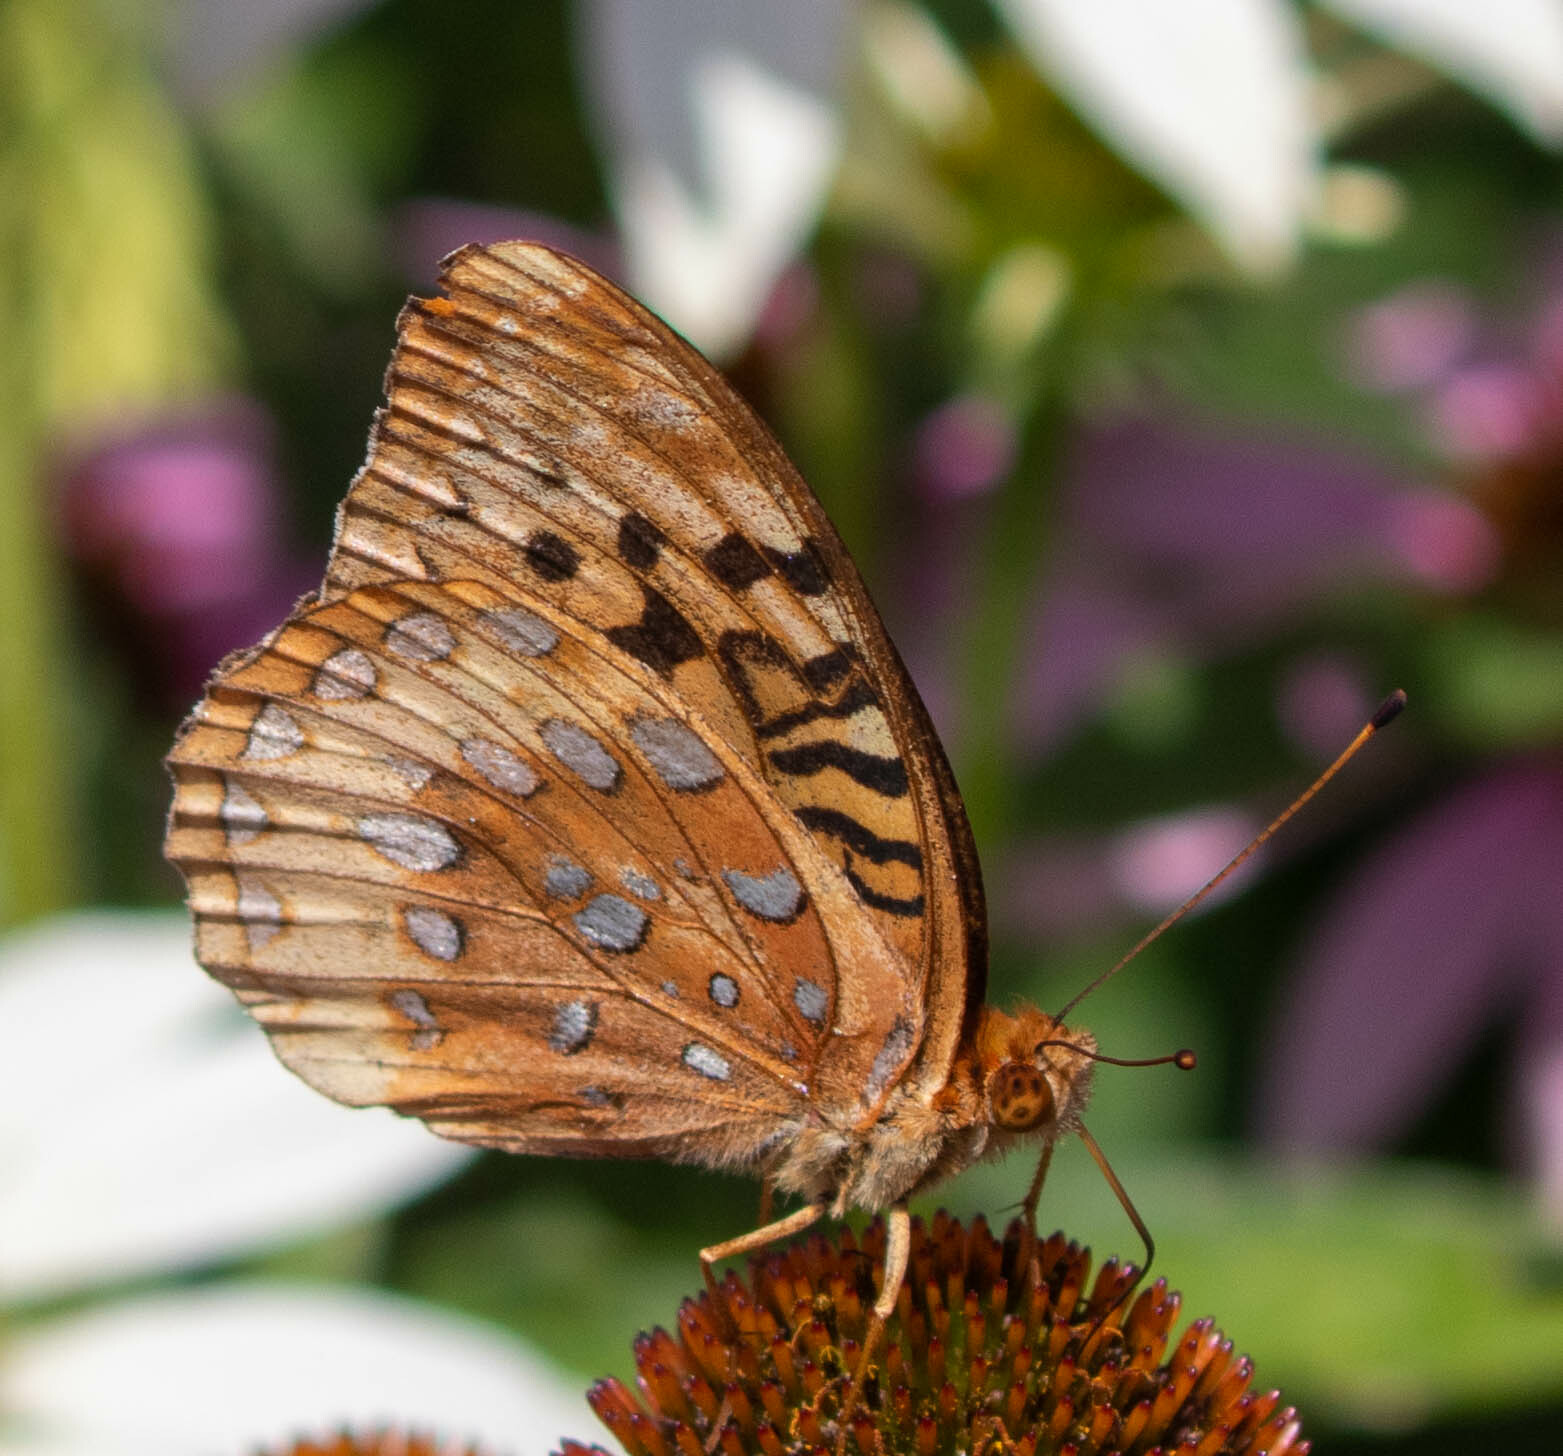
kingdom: Animalia
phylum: Arthropoda
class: Insecta
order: Lepidoptera
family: Nymphalidae
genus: Speyeria
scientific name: Speyeria cybele
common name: Great spangled fritillary
